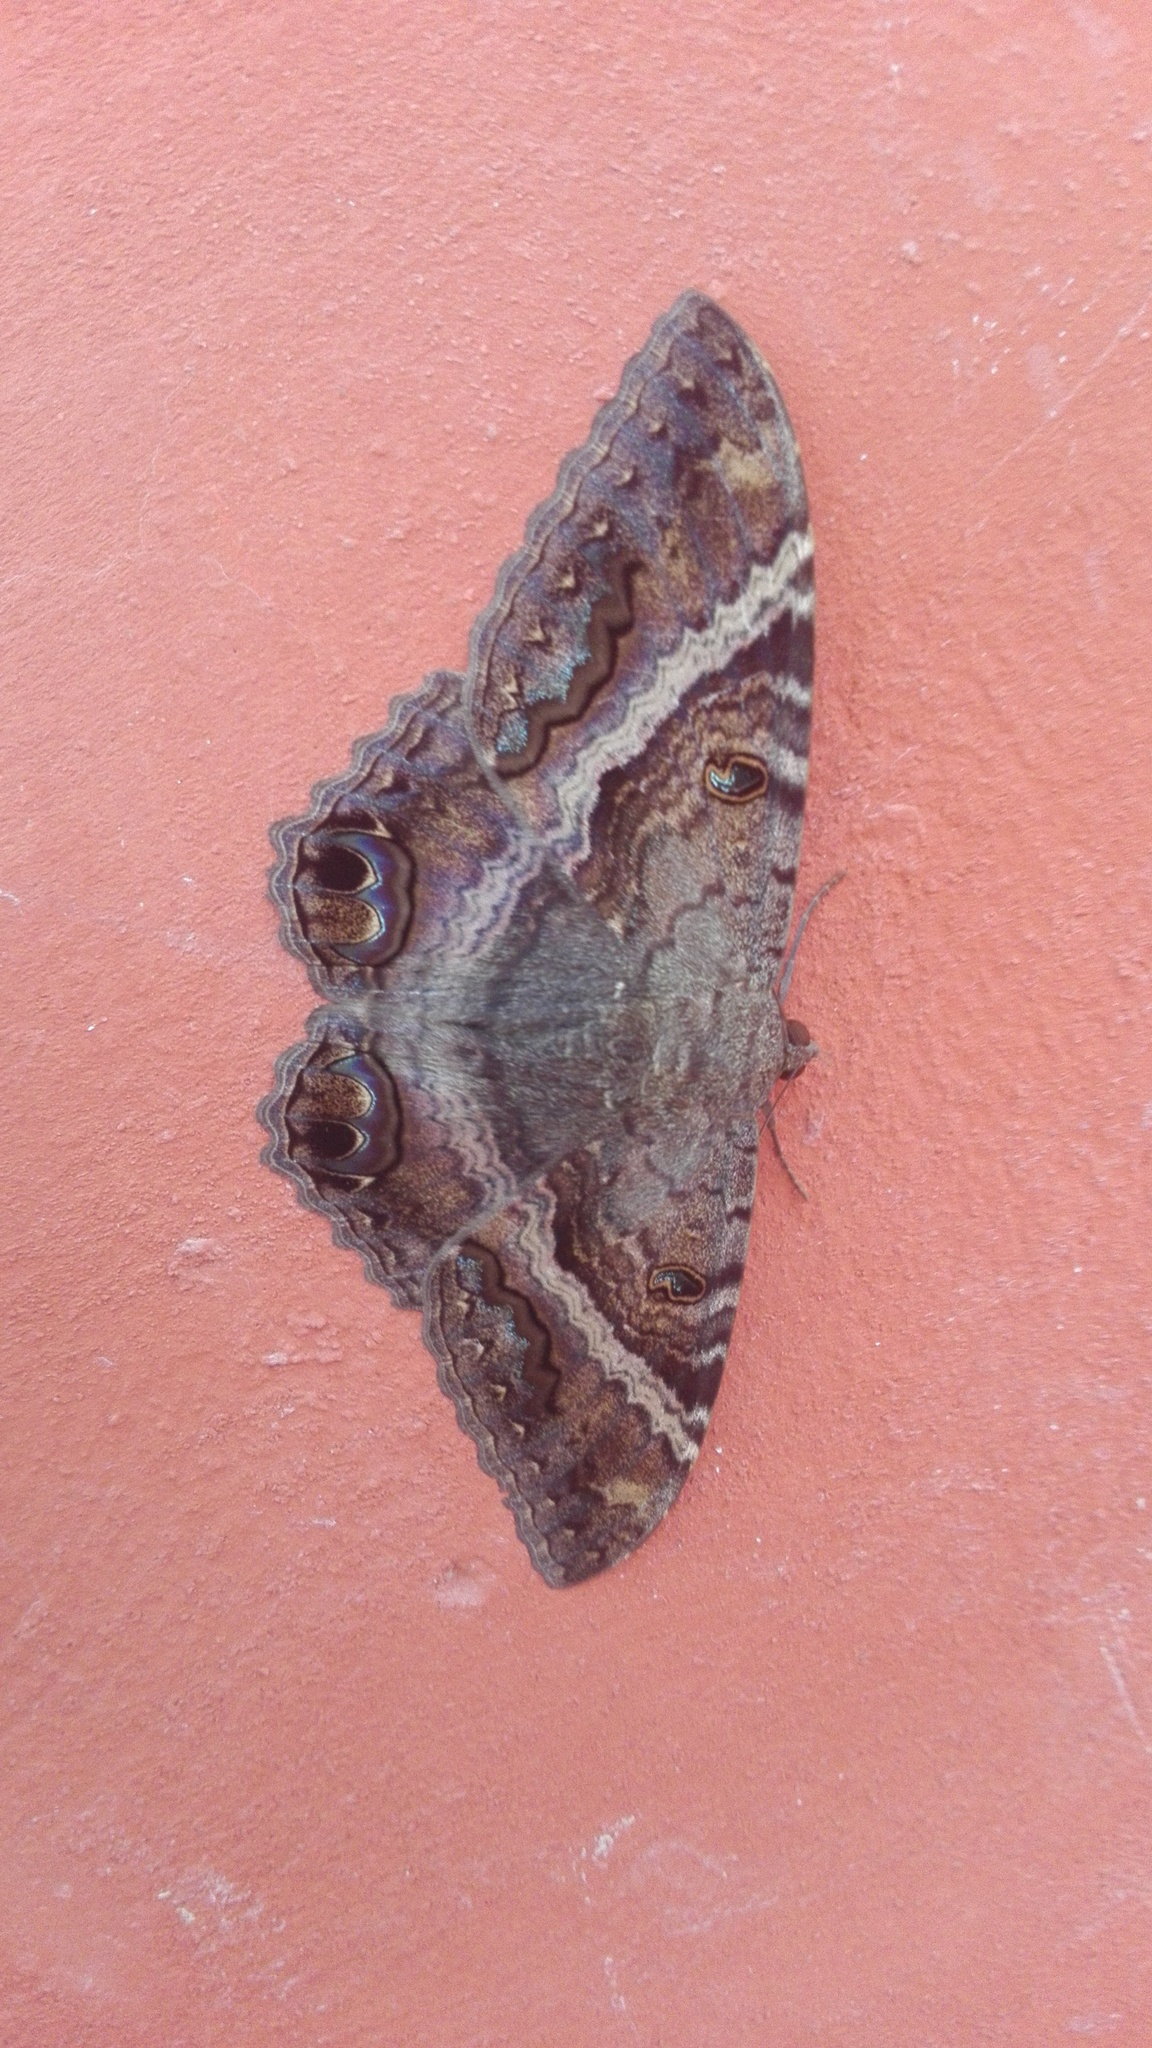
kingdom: Animalia
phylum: Arthropoda
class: Insecta
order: Lepidoptera
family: Erebidae
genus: Ascalapha
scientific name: Ascalapha odorata
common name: Black witch
